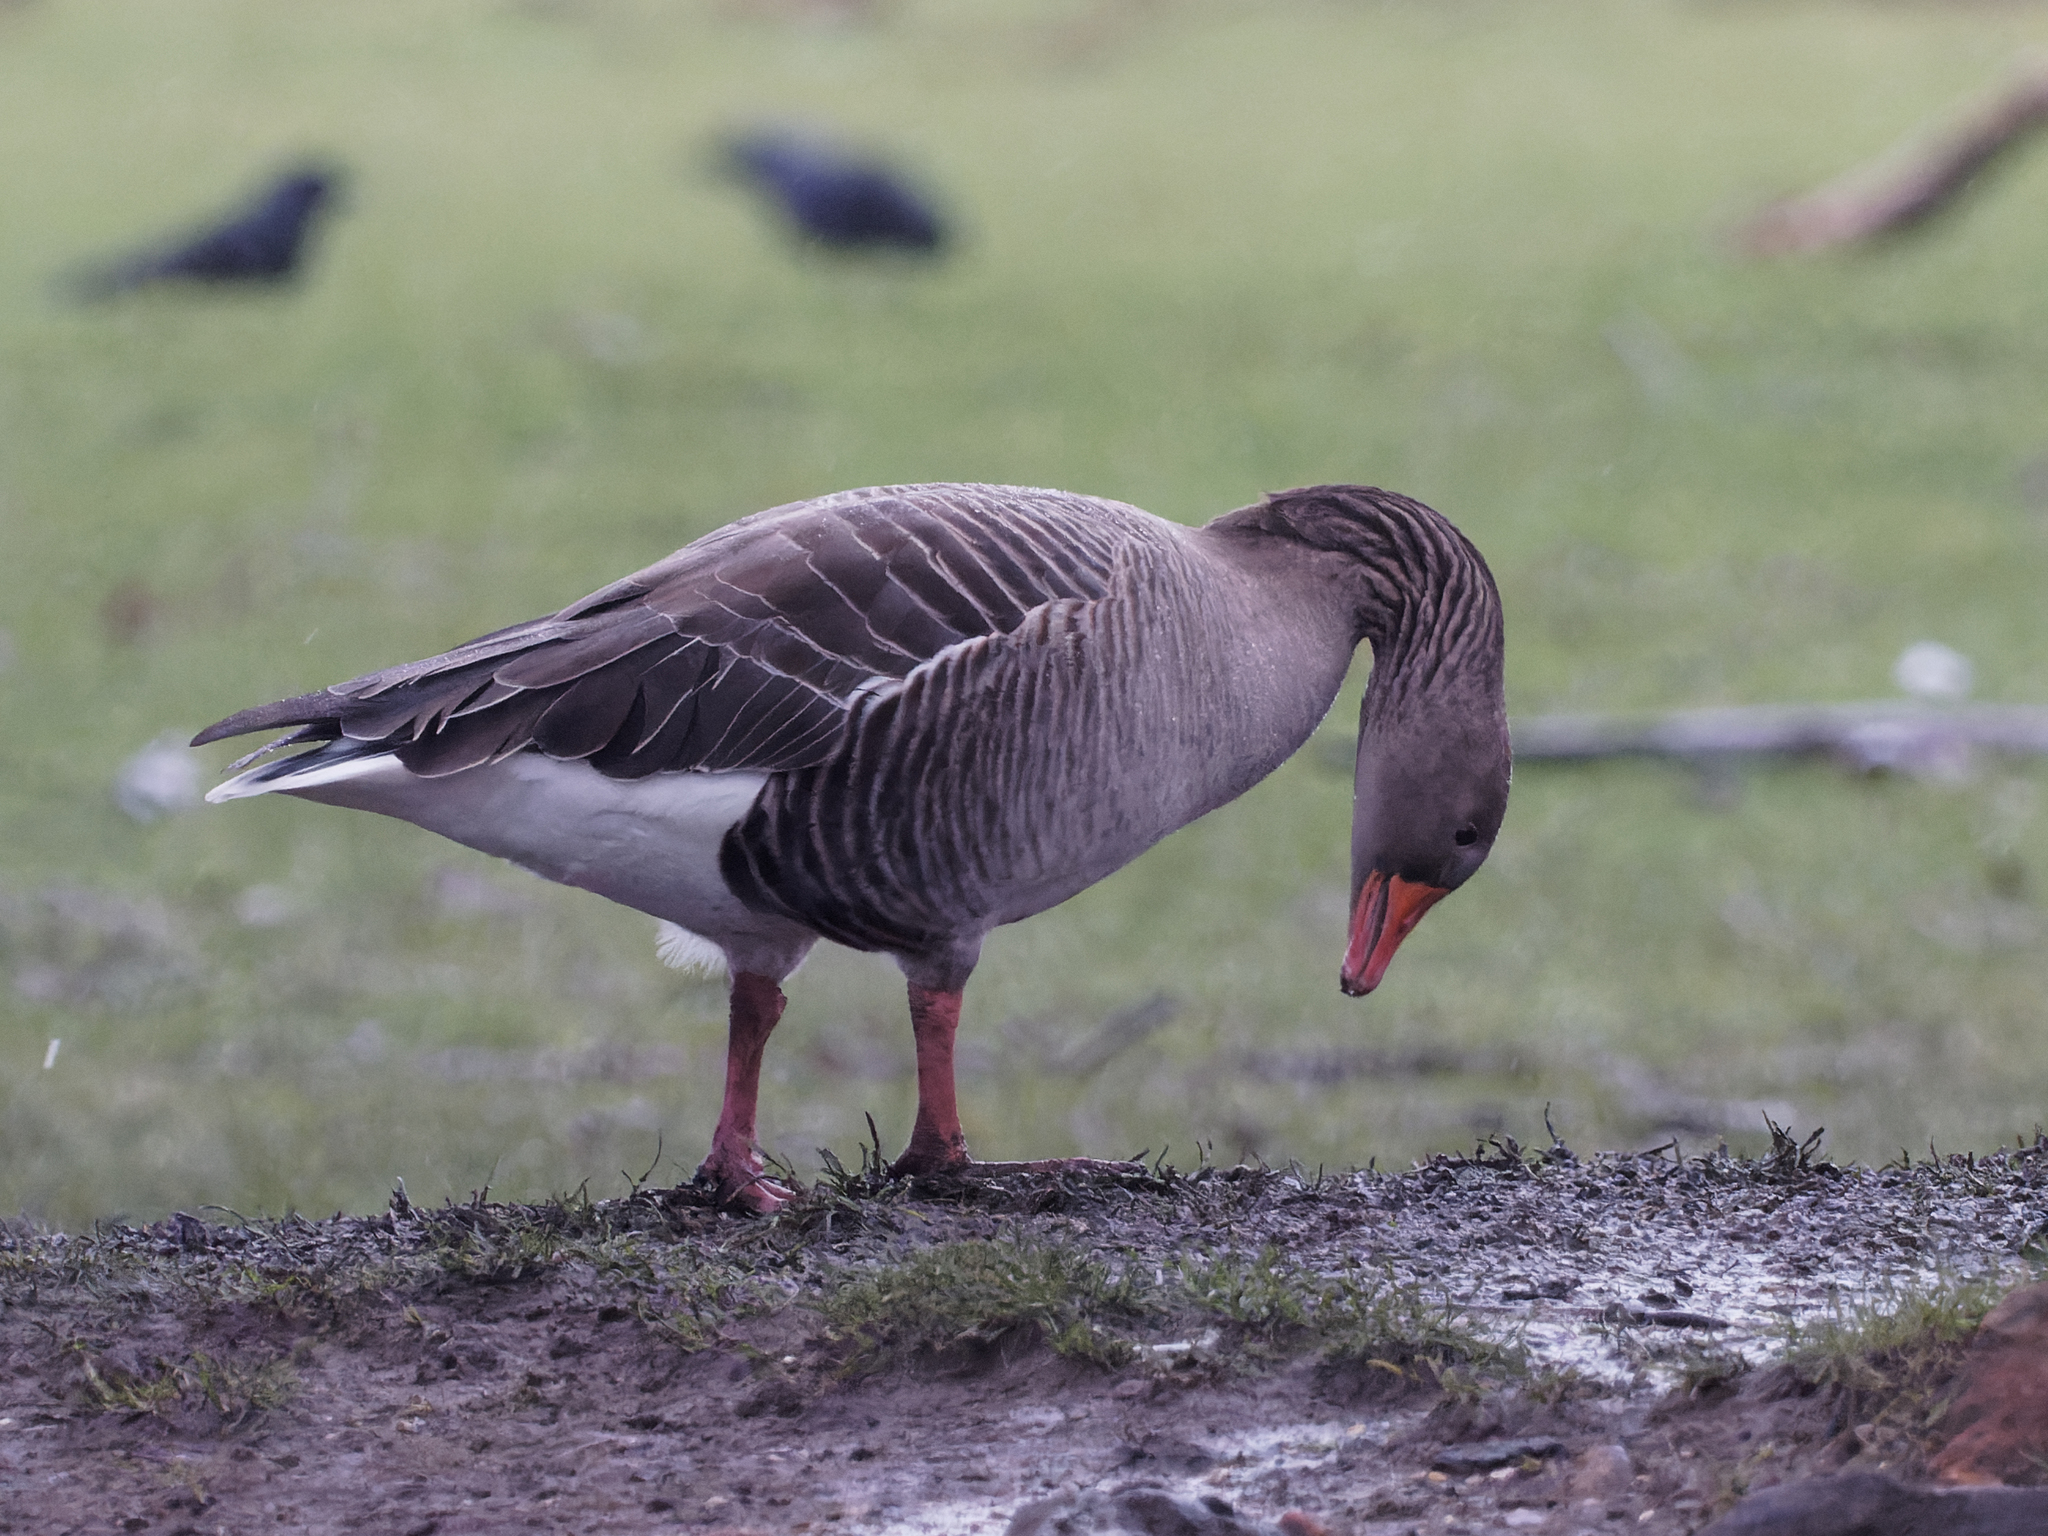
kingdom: Animalia
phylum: Chordata
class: Aves
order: Anseriformes
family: Anatidae
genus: Anser
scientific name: Anser anser
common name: Greylag goose
